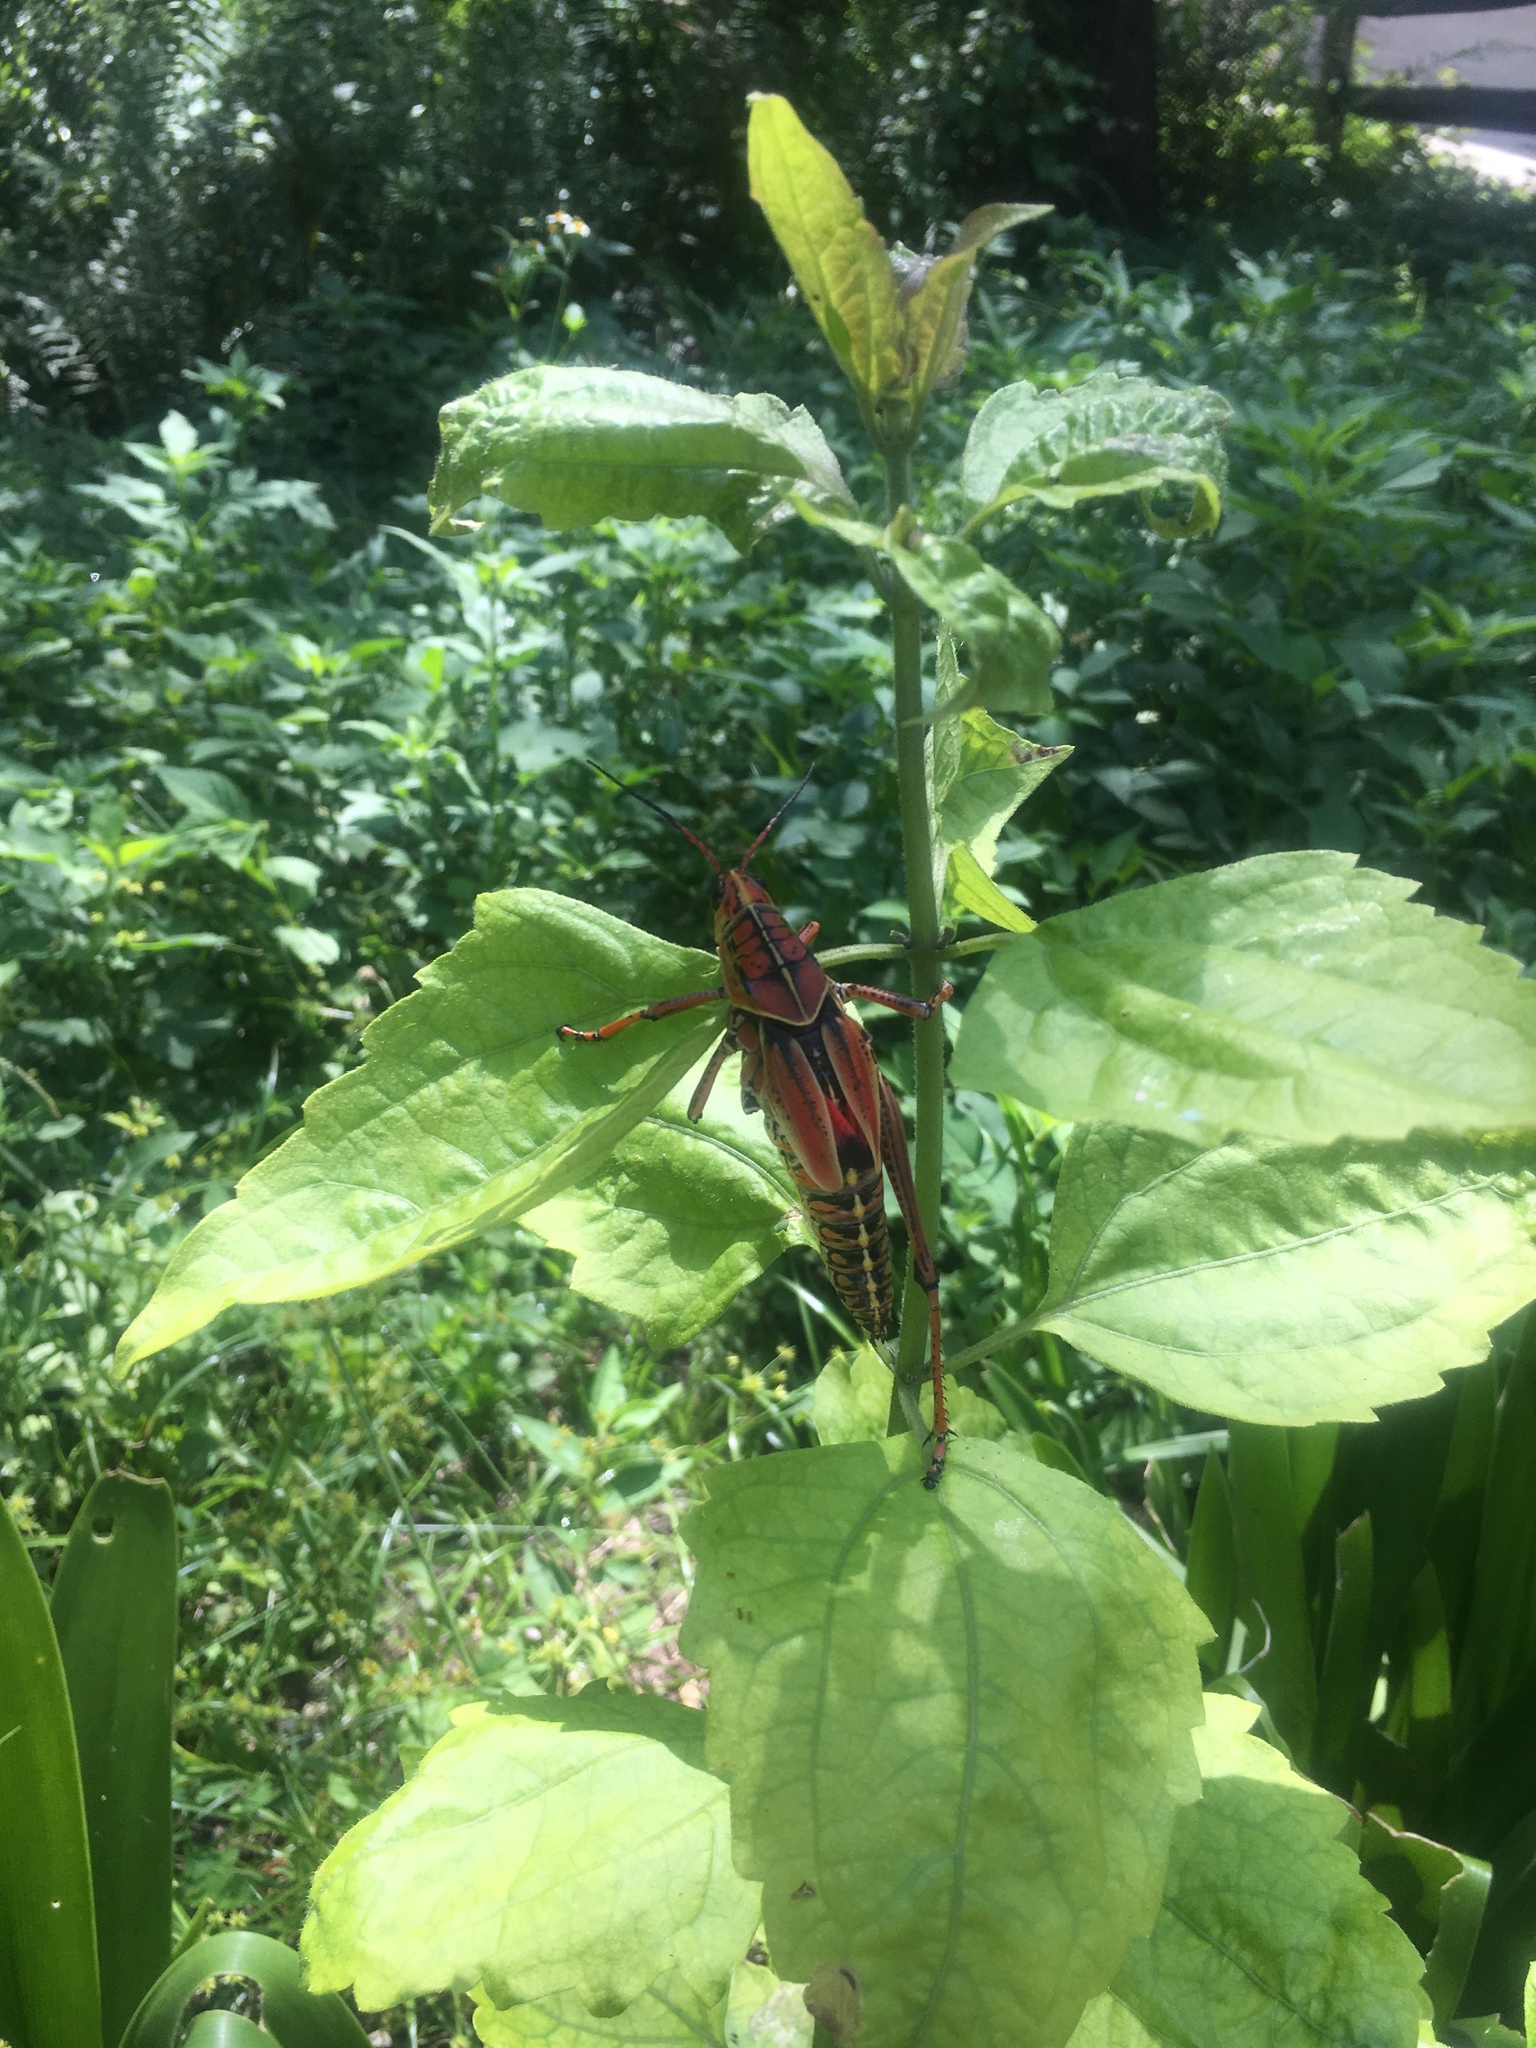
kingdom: Animalia
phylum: Arthropoda
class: Insecta
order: Orthoptera
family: Romaleidae
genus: Romalea
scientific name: Romalea microptera
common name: Eastern lubber grasshopper
